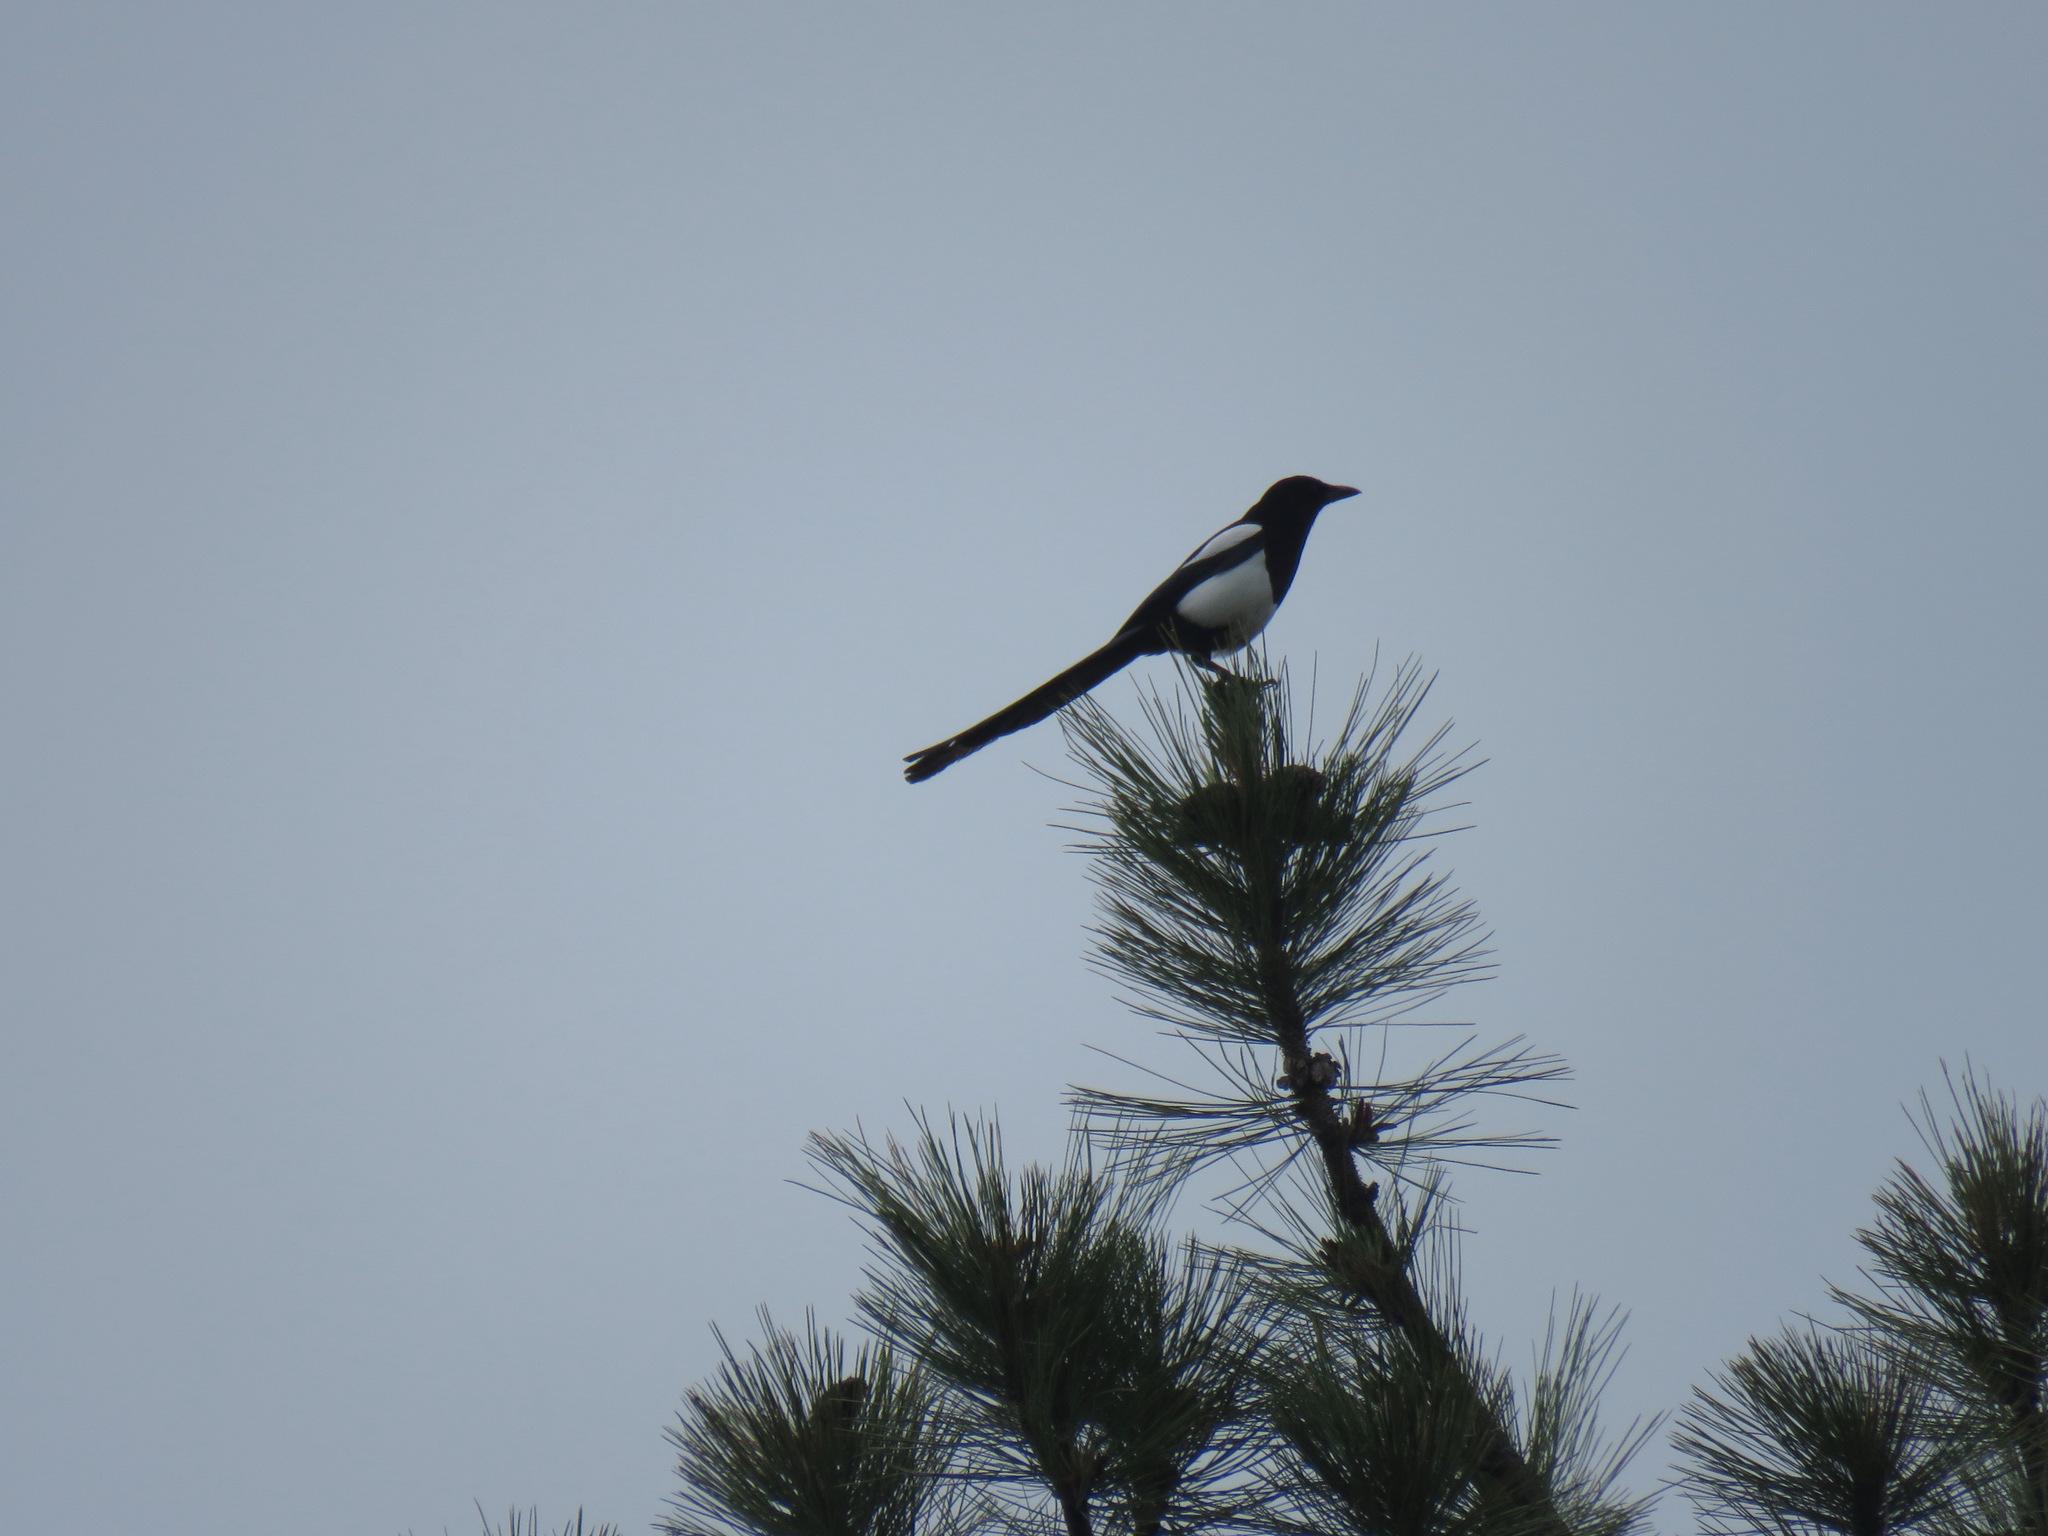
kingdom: Animalia
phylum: Chordata
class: Aves
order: Passeriformes
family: Corvidae
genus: Pica
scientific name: Pica hudsonia
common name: Black-billed magpie
